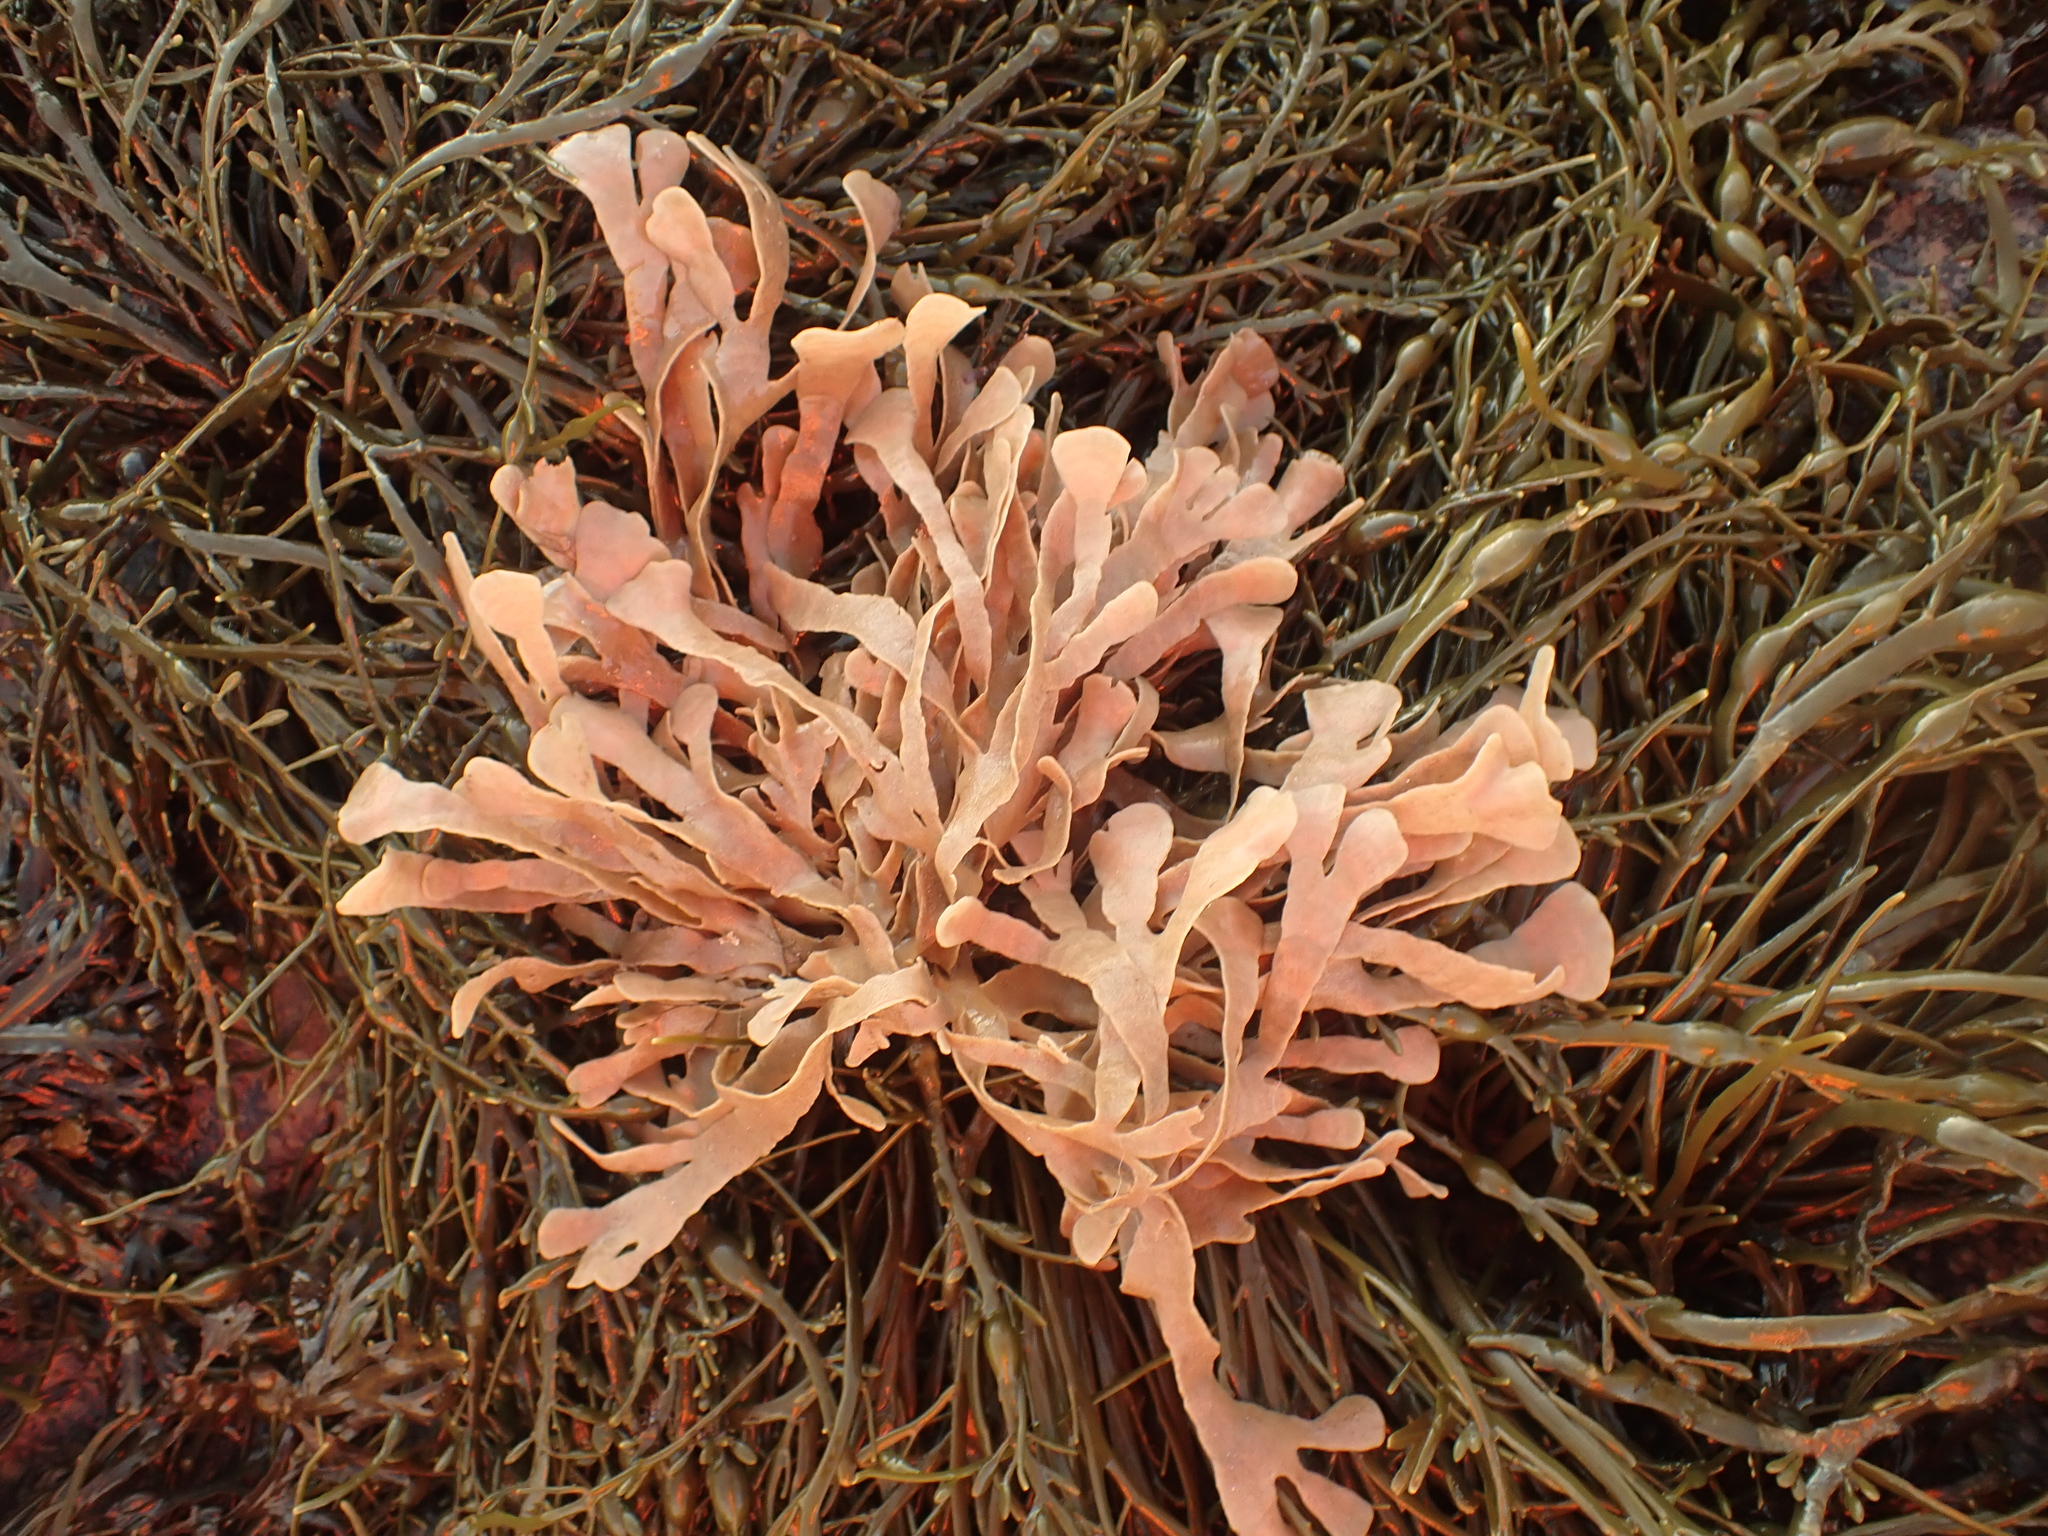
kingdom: Animalia
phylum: Bryozoa
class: Gymnolaemata
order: Cheilostomatida
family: Flustridae
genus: Flustra
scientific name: Flustra foliacea
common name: Hornwrack
